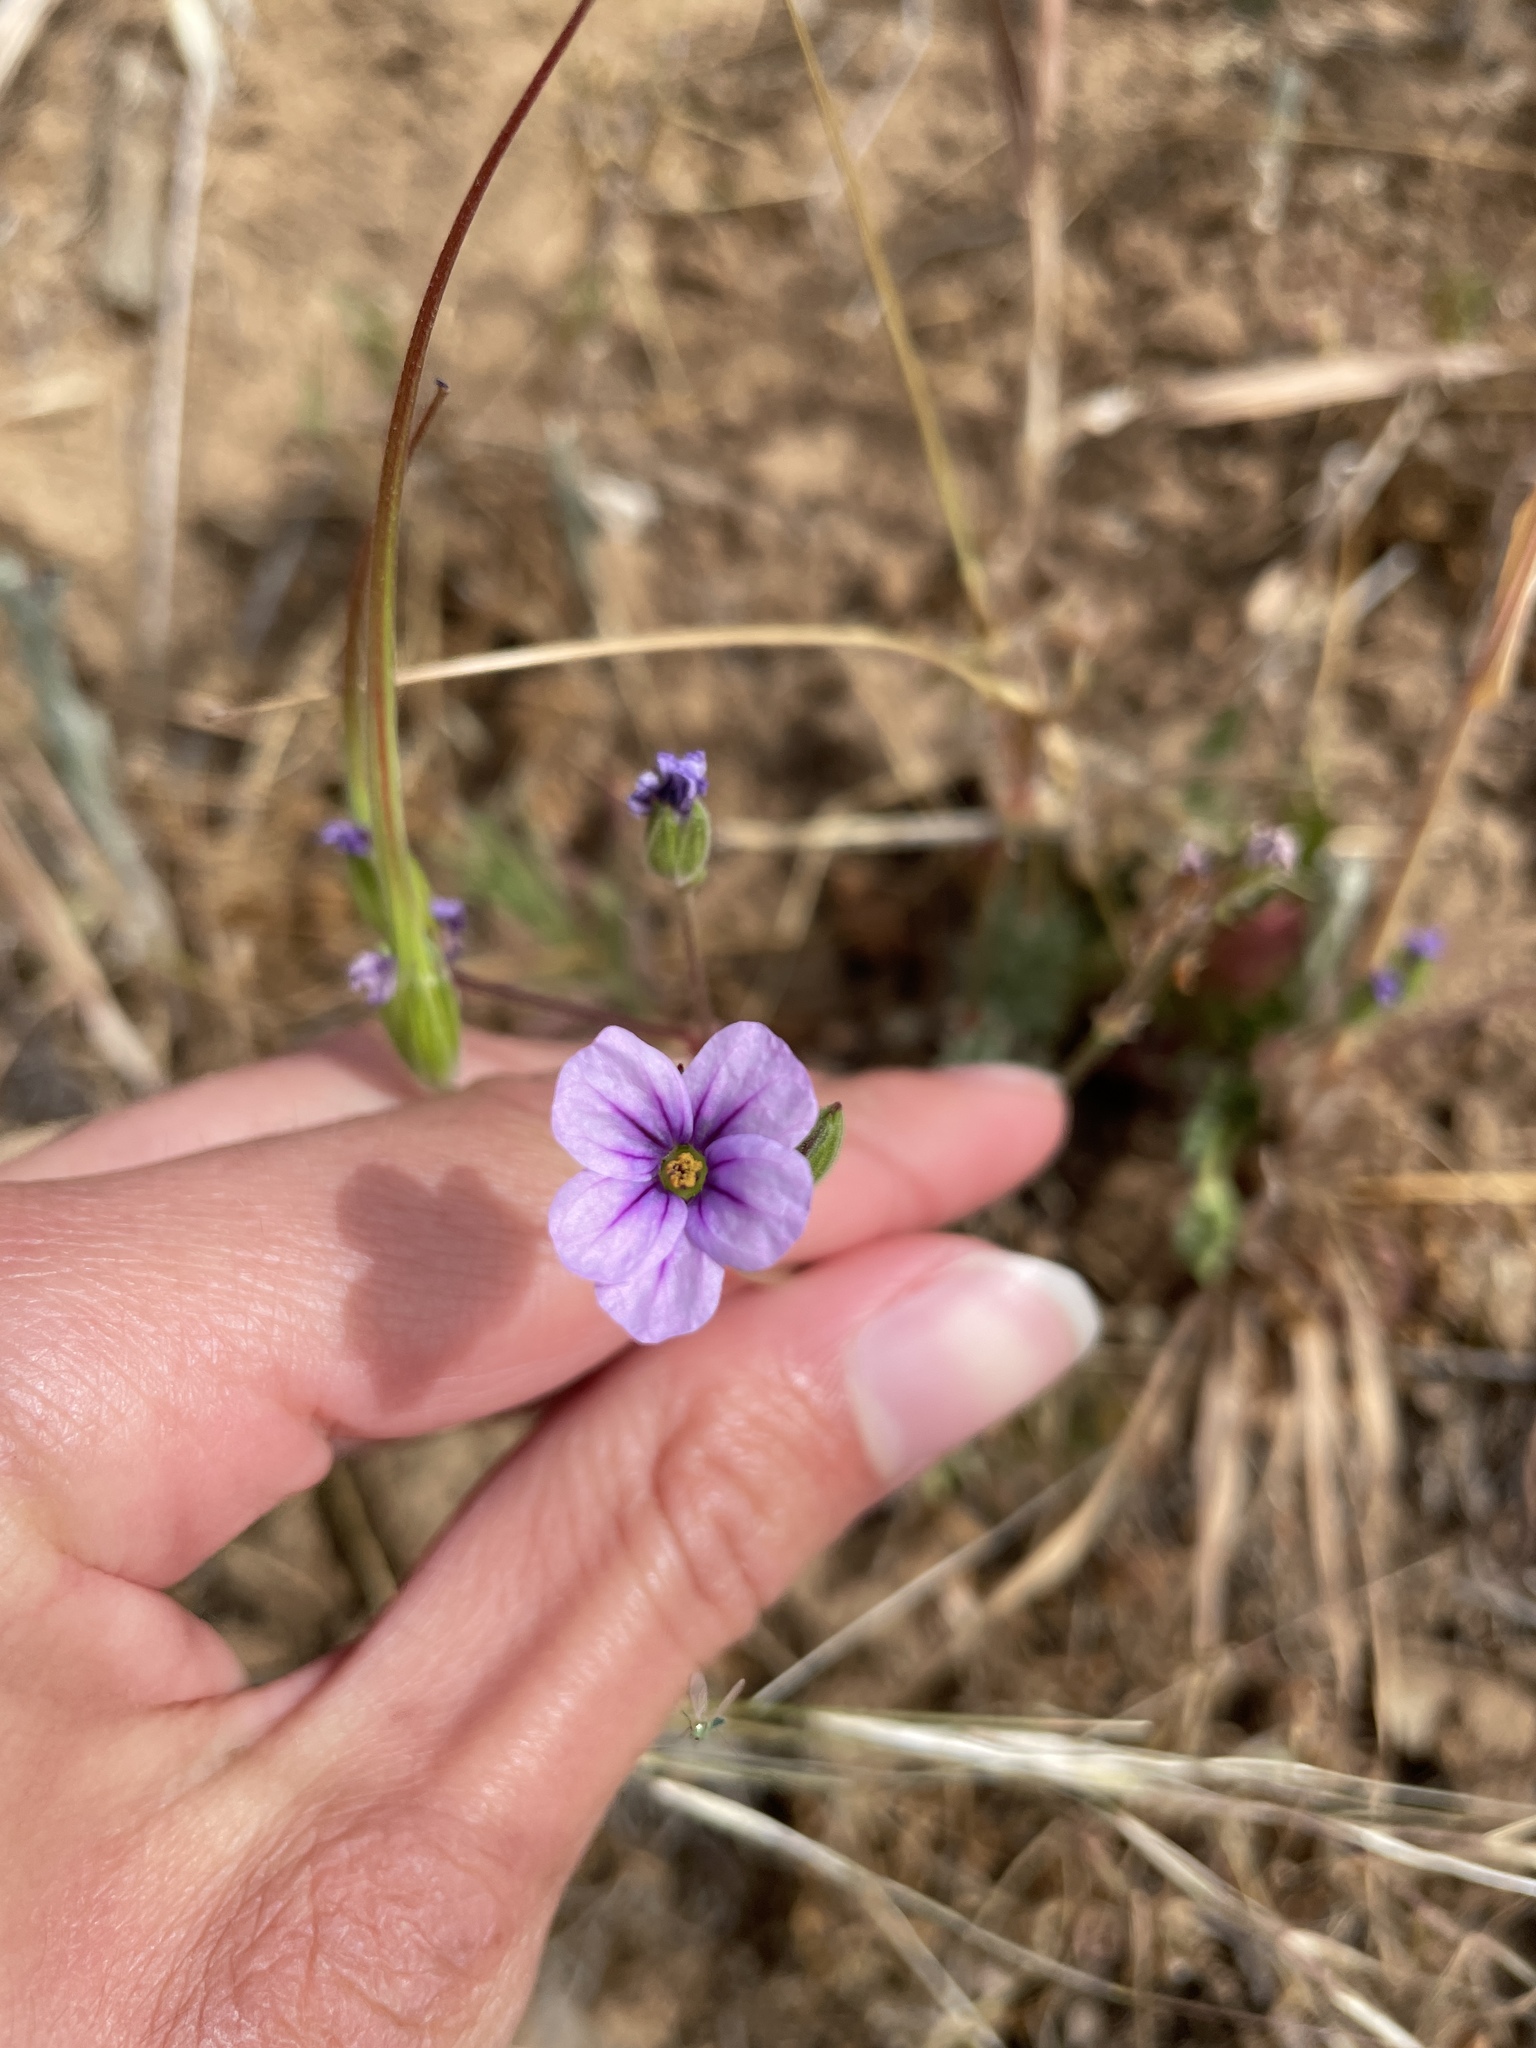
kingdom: Plantae
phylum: Tracheophyta
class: Magnoliopsida
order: Geraniales
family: Geraniaceae
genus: Erodium
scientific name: Erodium botrys
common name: Mediterranean stork's-bill
